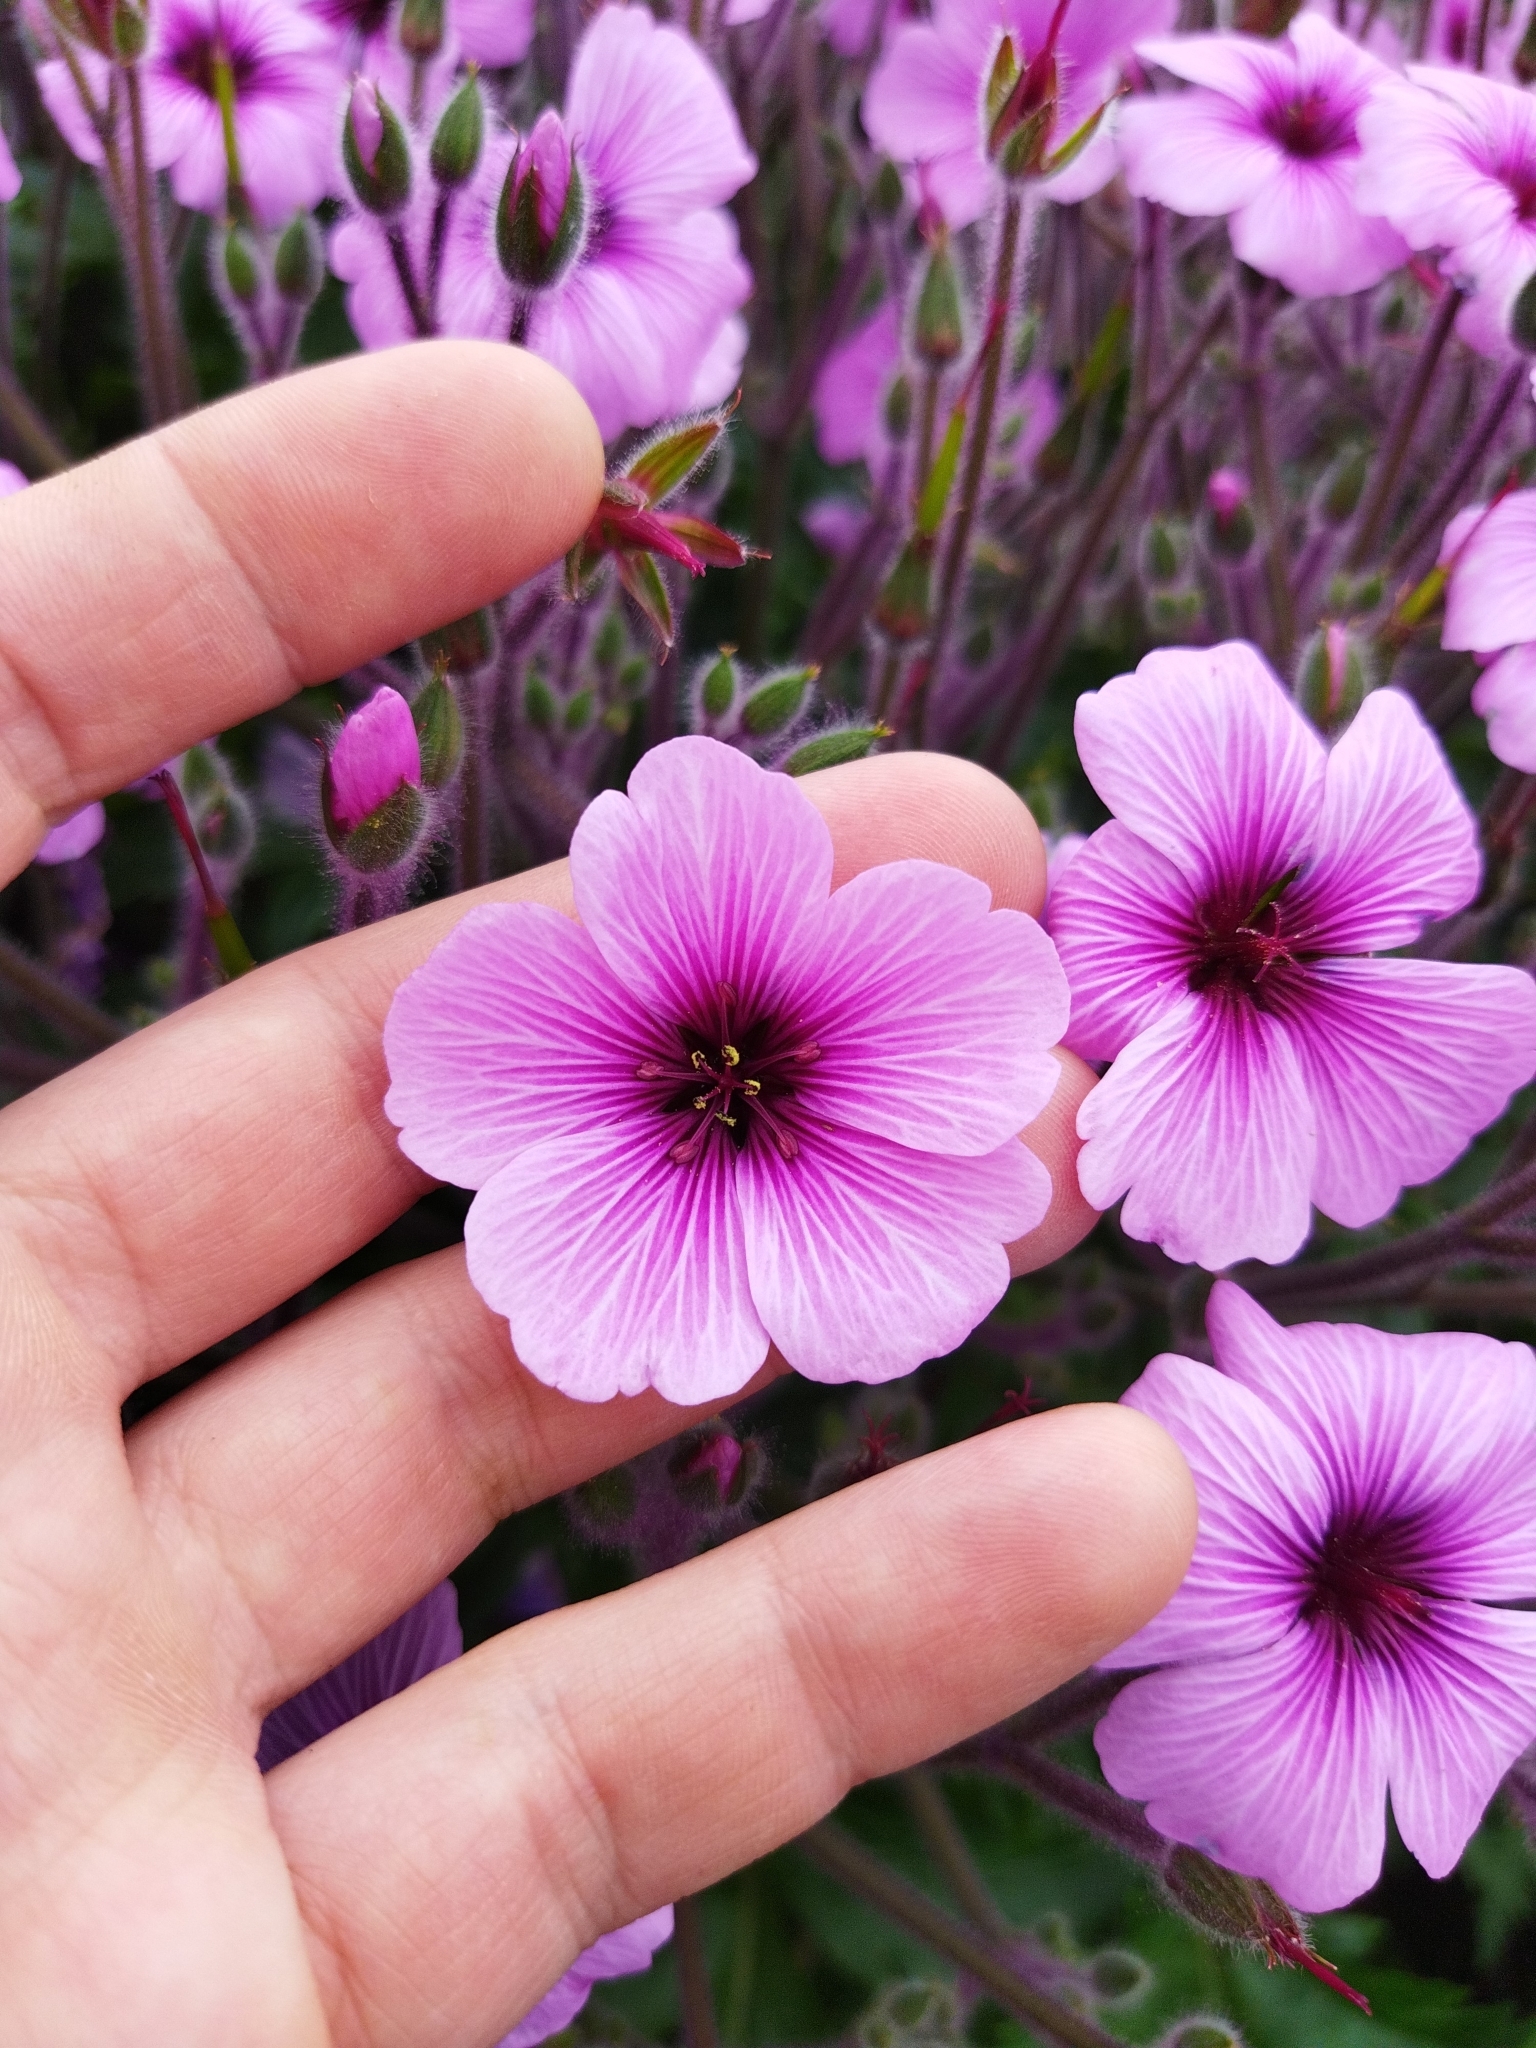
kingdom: Plantae
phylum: Tracheophyta
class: Magnoliopsida
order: Geraniales
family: Geraniaceae
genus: Geranium
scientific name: Geranium maderense
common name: Giant herb-robert
